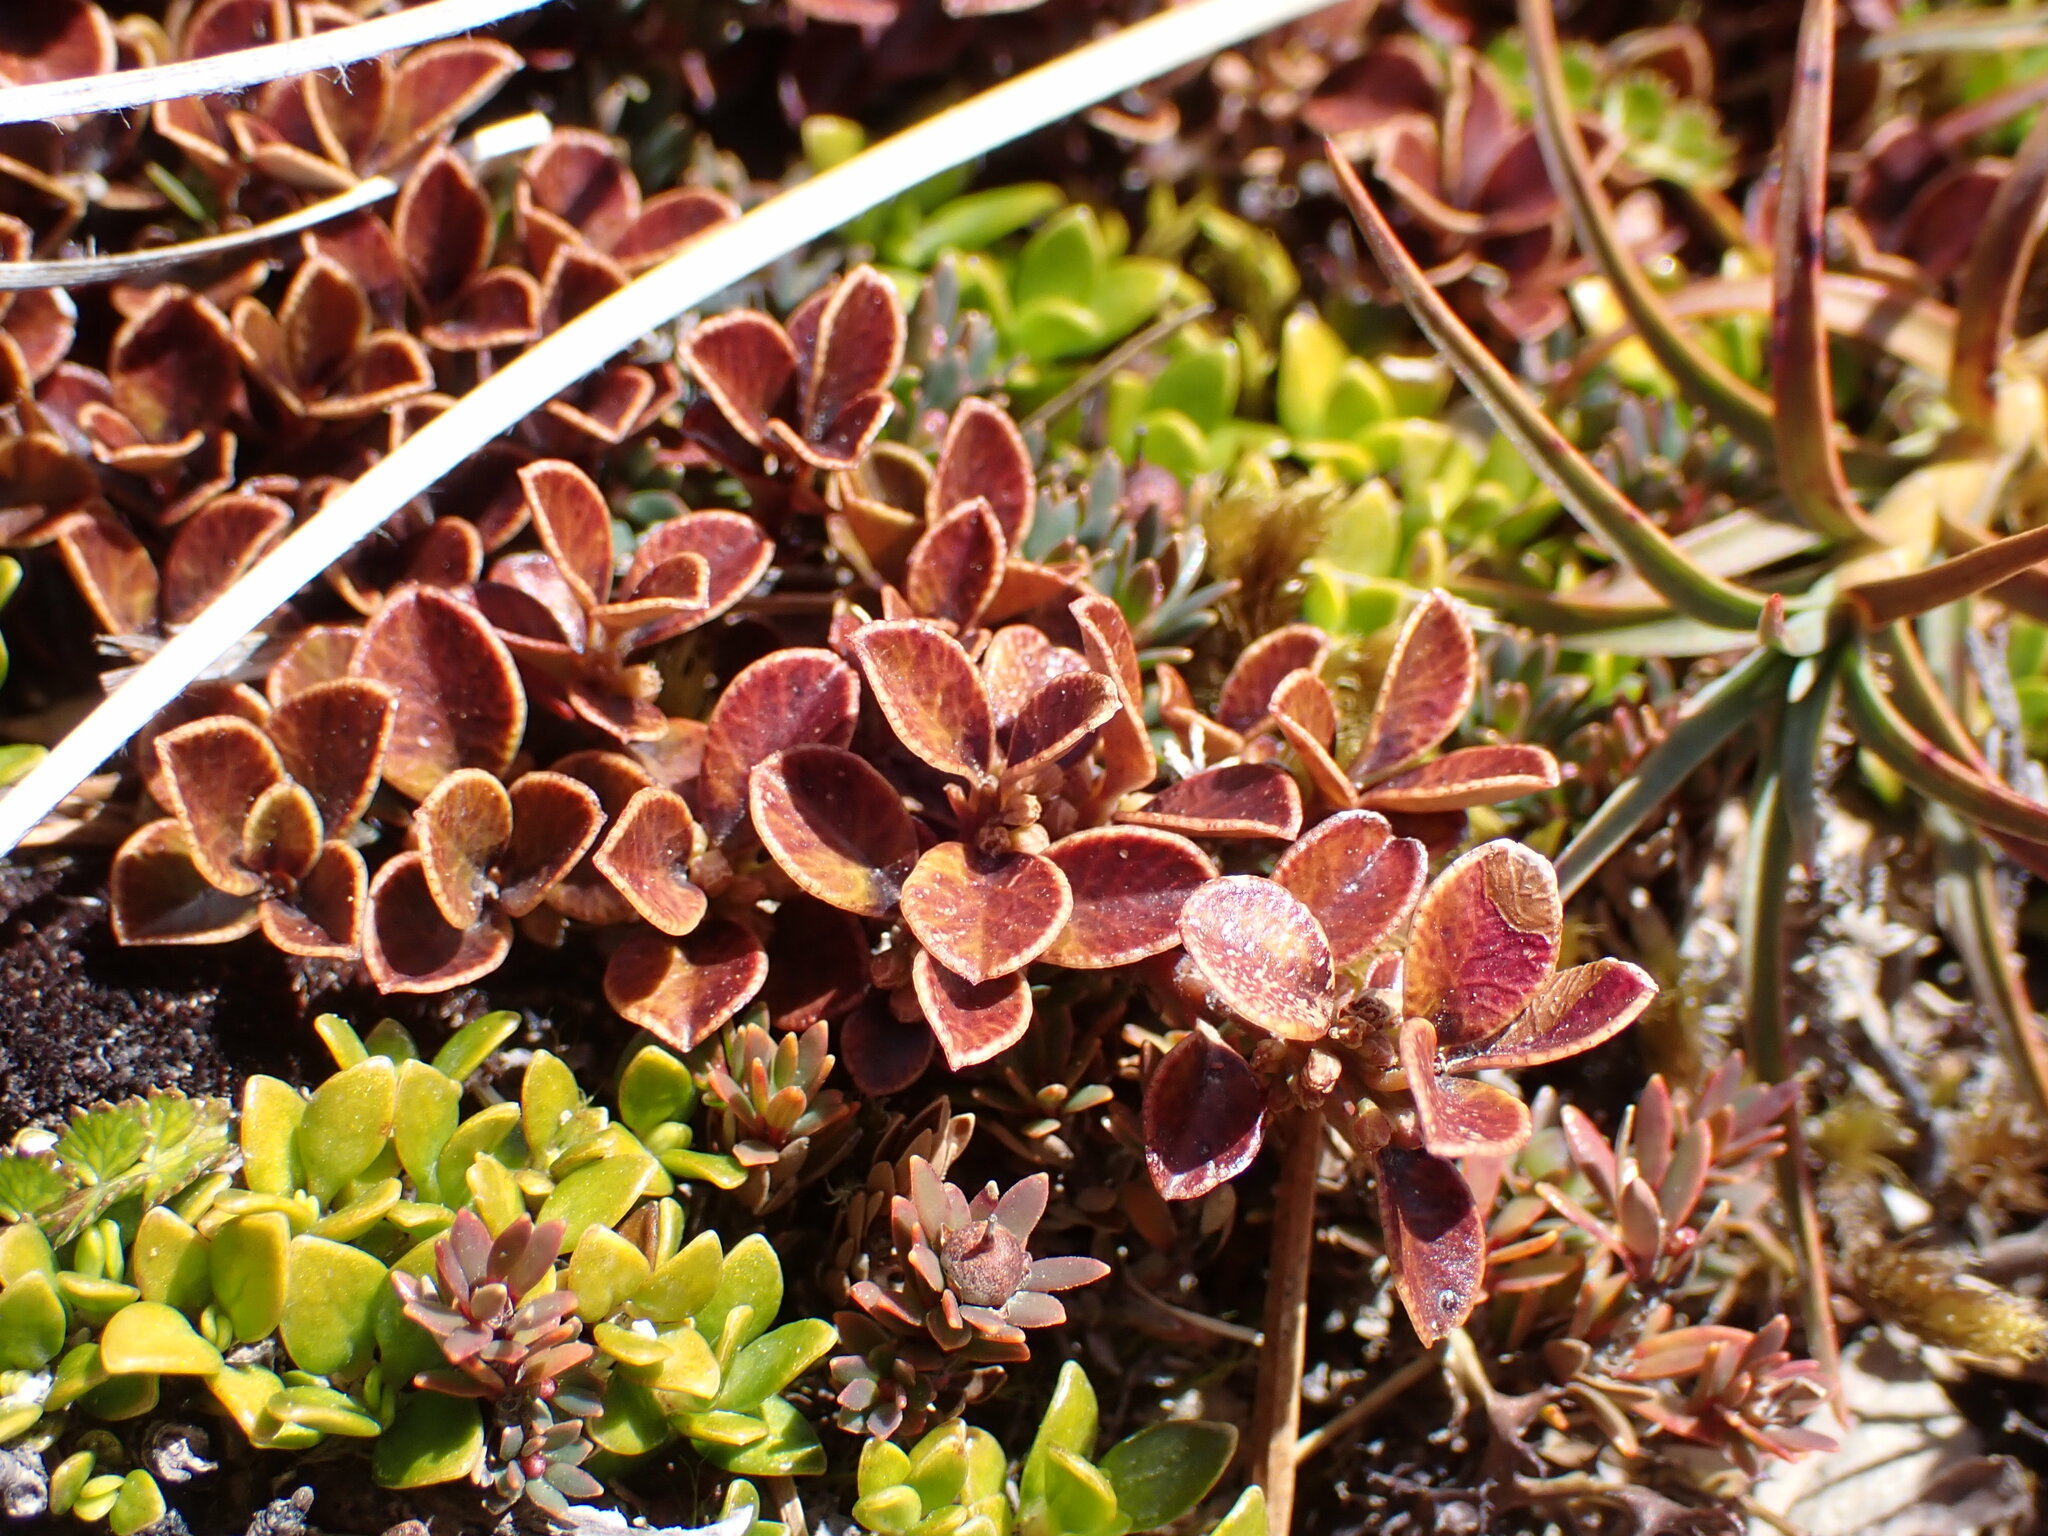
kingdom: Plantae
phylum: Tracheophyta
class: Magnoliopsida
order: Ericales
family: Primulaceae
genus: Myrsine
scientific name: Myrsine nummularia
